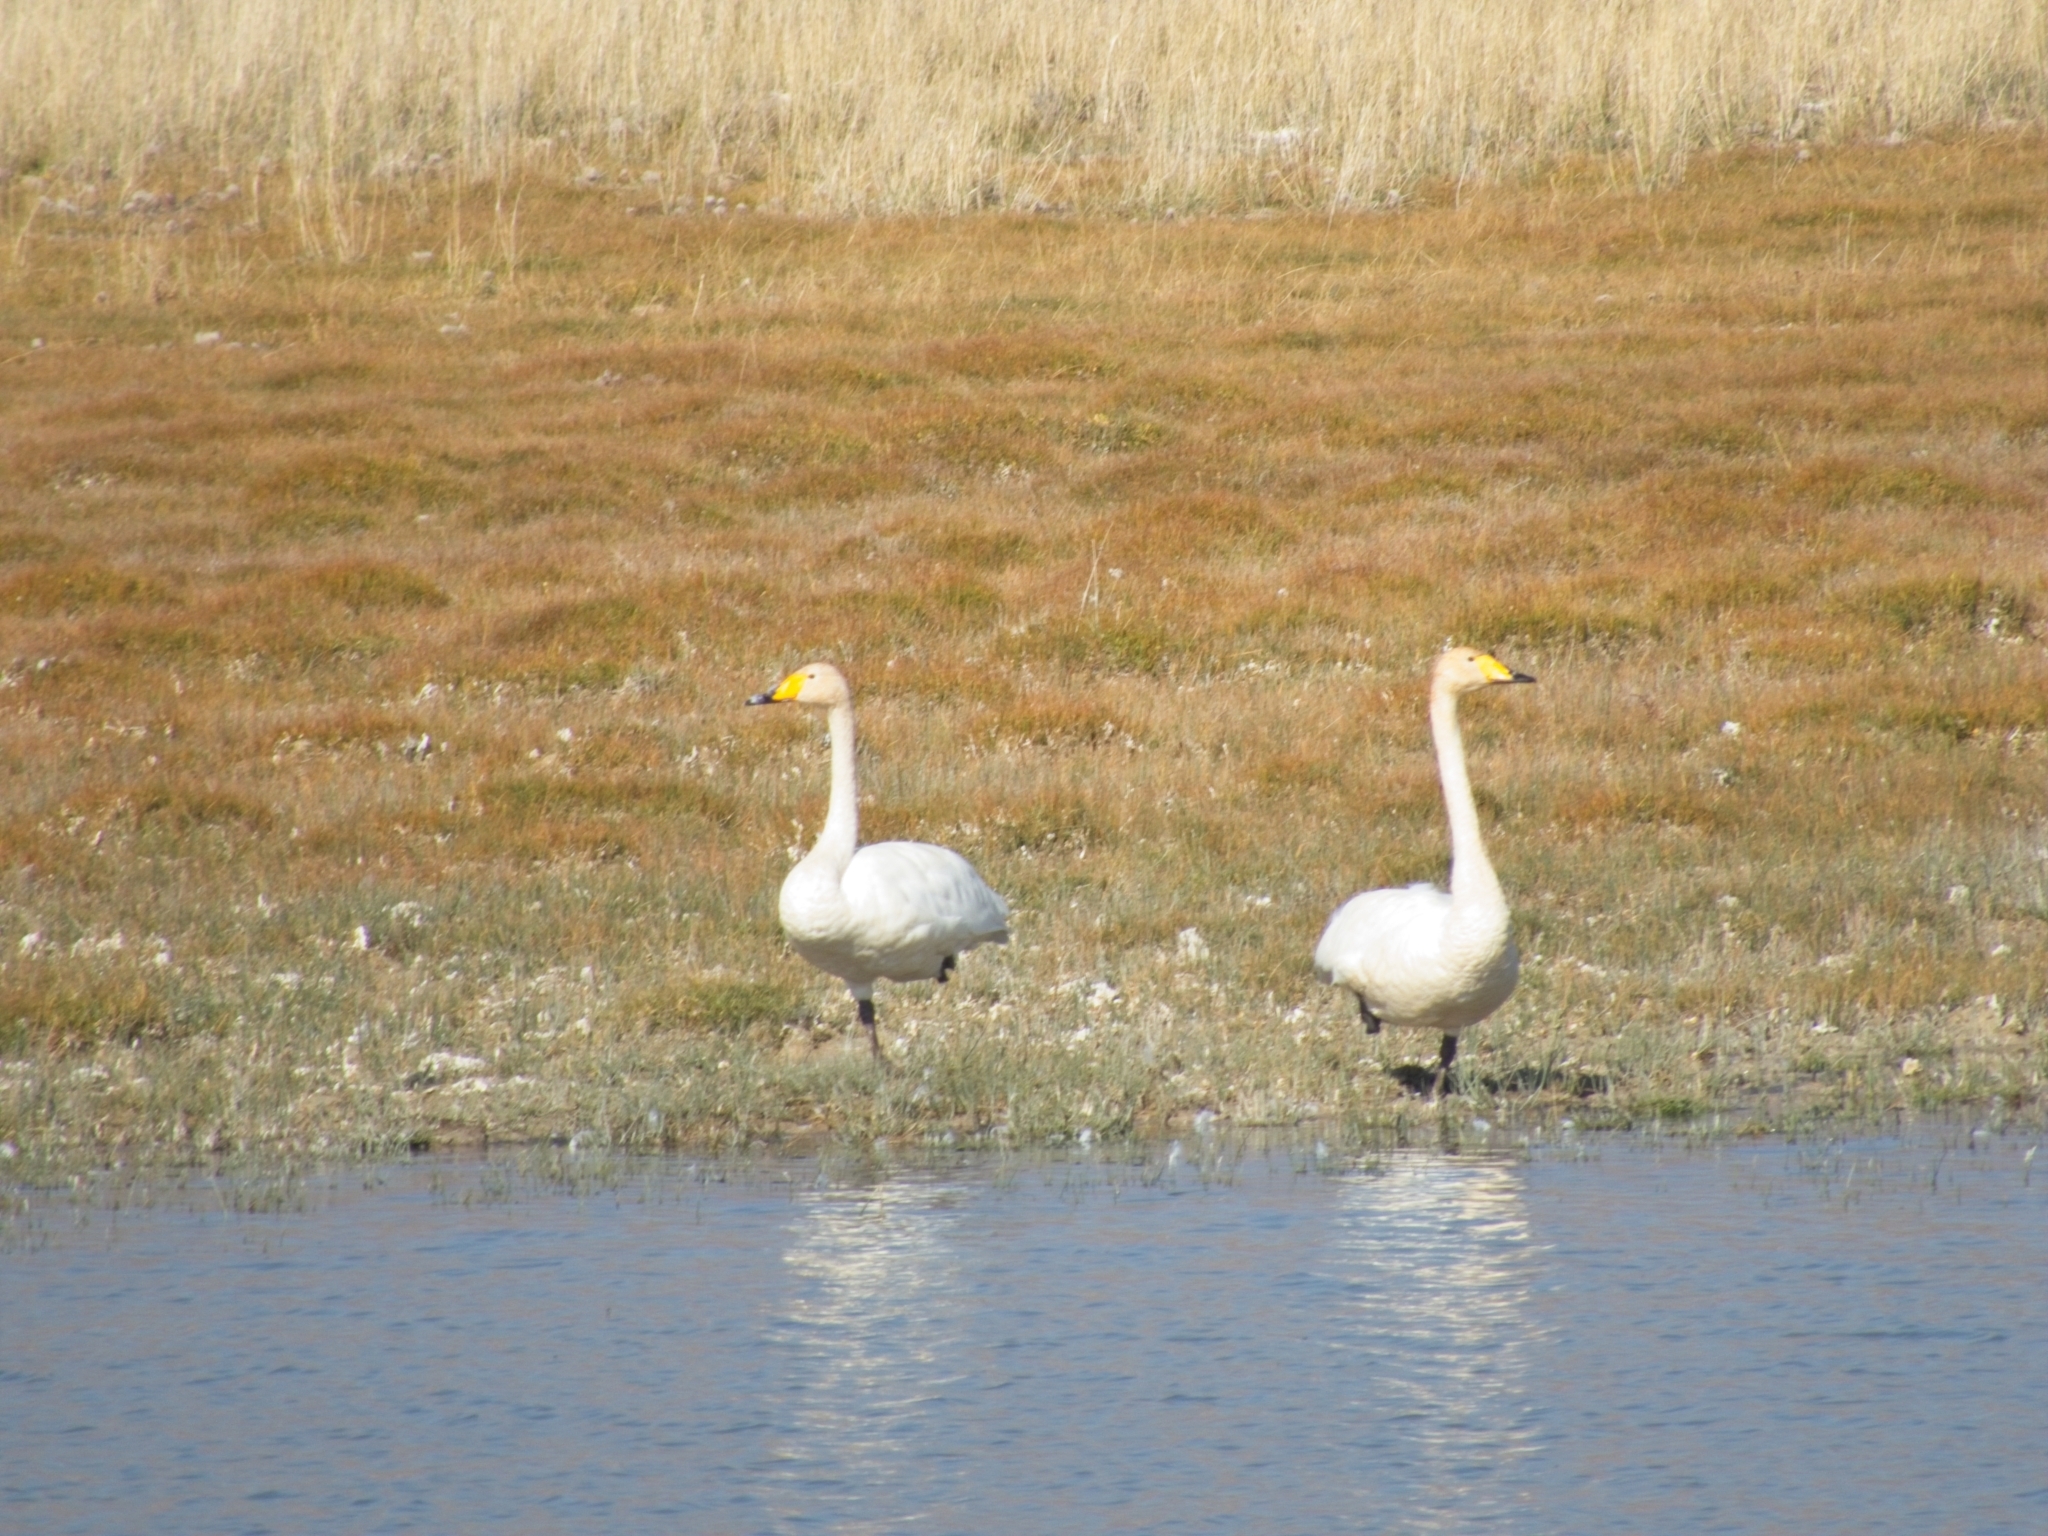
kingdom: Animalia
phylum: Chordata
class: Aves
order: Anseriformes
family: Anatidae
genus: Cygnus
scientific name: Cygnus cygnus
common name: Whooper swan
